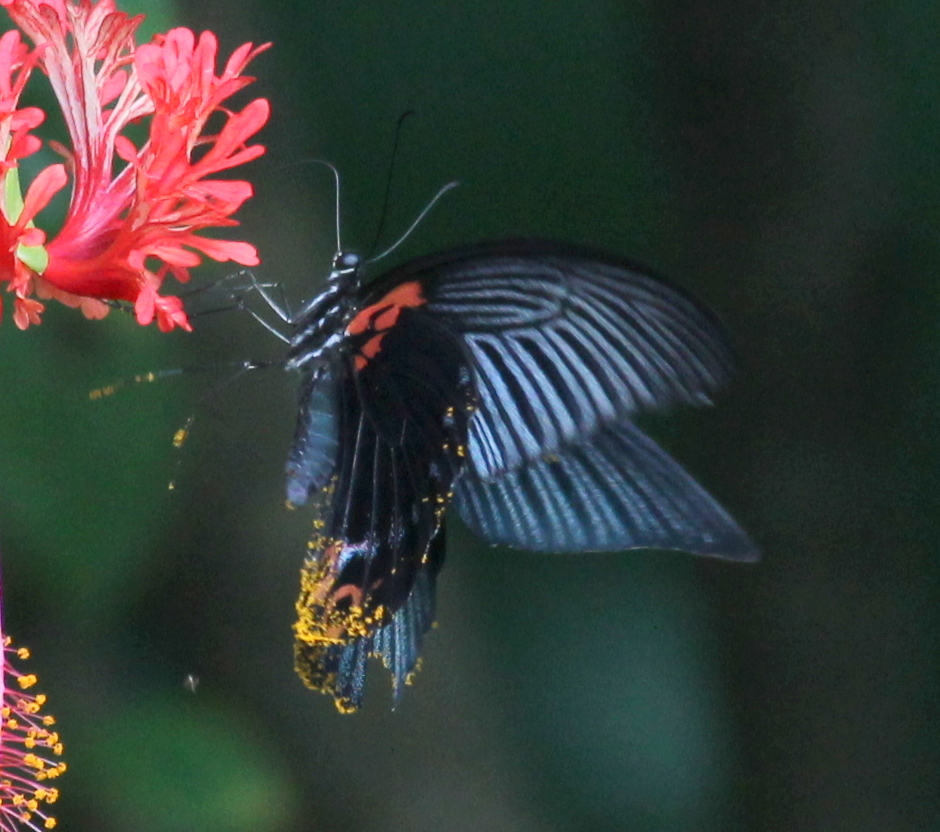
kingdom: Animalia
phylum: Arthropoda
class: Insecta
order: Lepidoptera
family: Papilionidae
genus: Papilio
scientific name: Papilio memnon
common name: Great mormon
